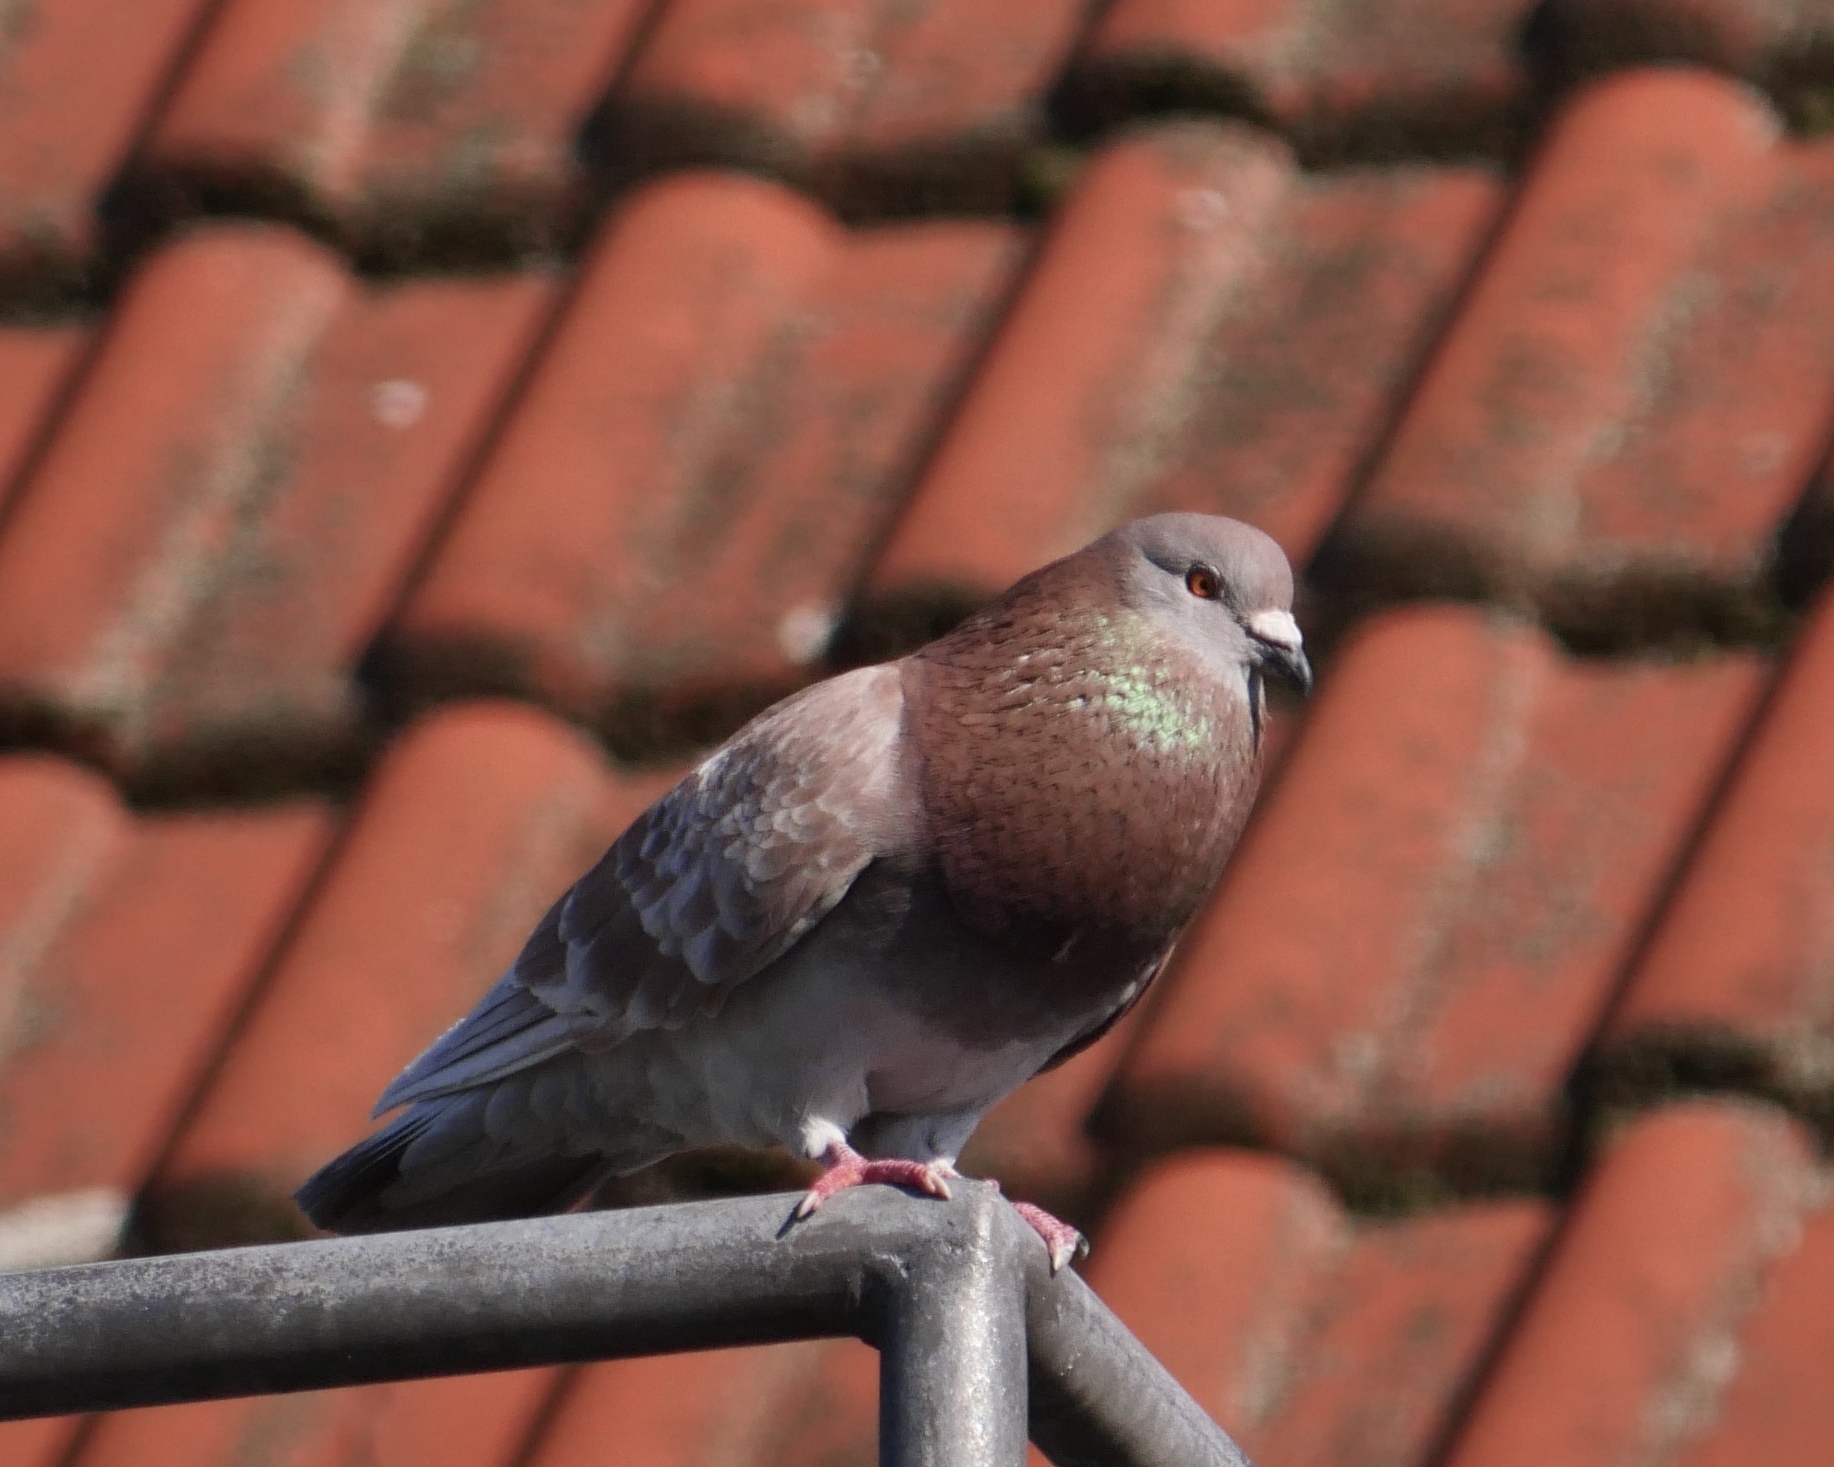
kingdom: Animalia
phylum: Chordata
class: Aves
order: Columbiformes
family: Columbidae
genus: Columba
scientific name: Columba livia
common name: Rock pigeon
